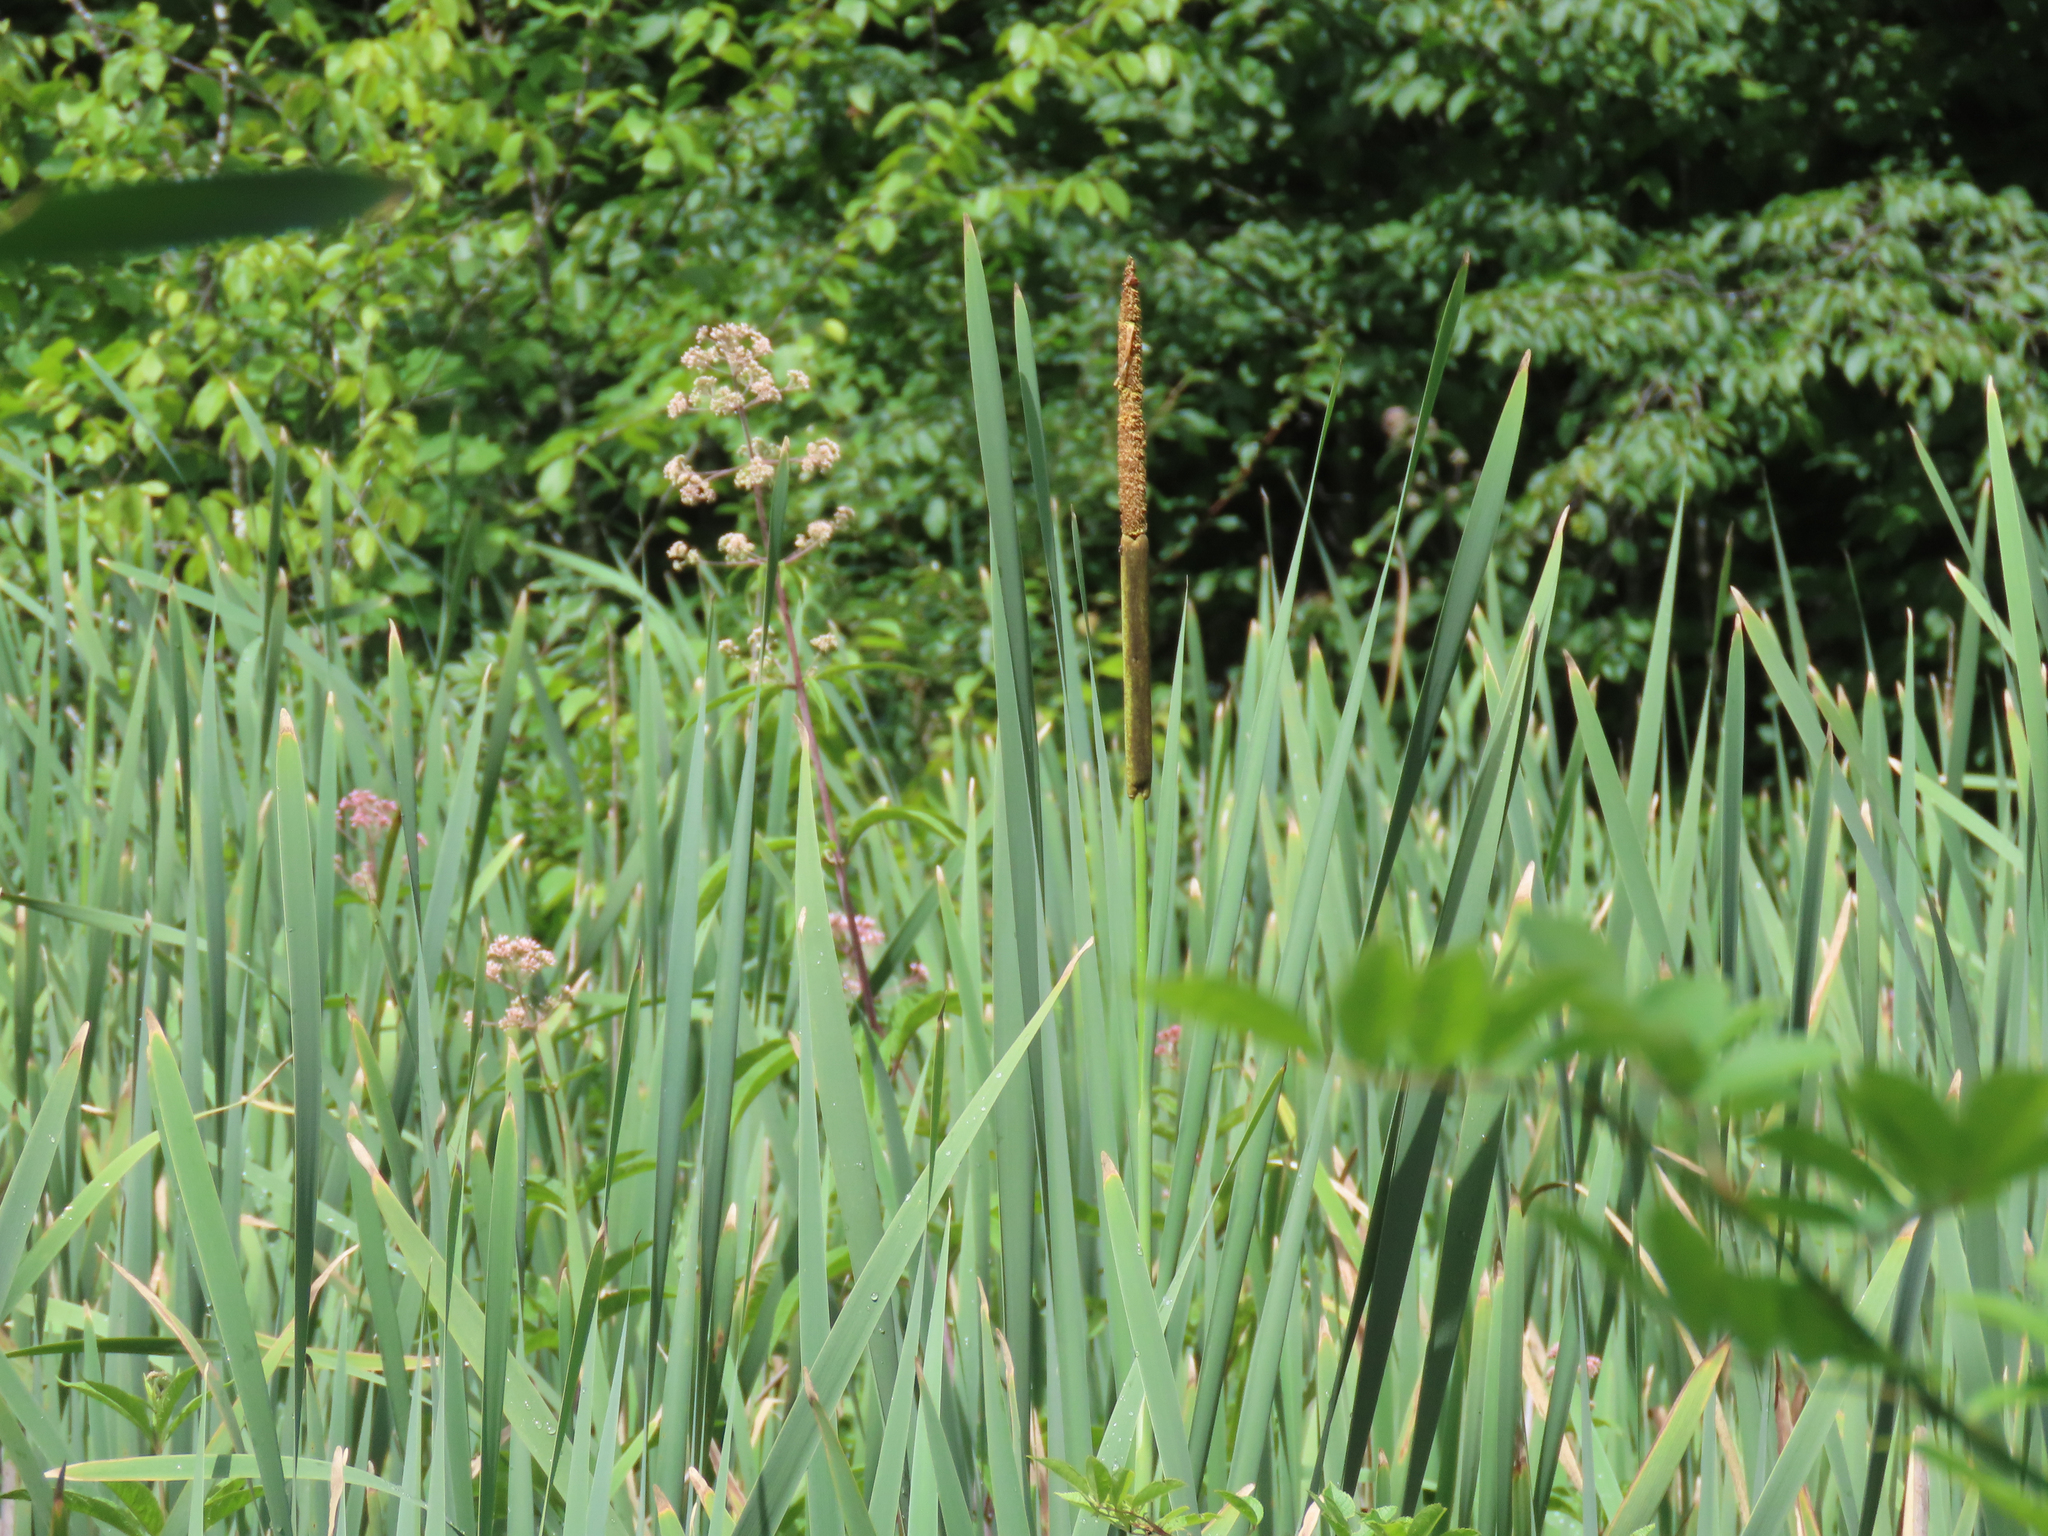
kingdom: Plantae
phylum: Tracheophyta
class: Magnoliopsida
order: Asterales
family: Asteraceae
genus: Eutrochium
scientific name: Eutrochium fistulosum
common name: Trumpetweed
